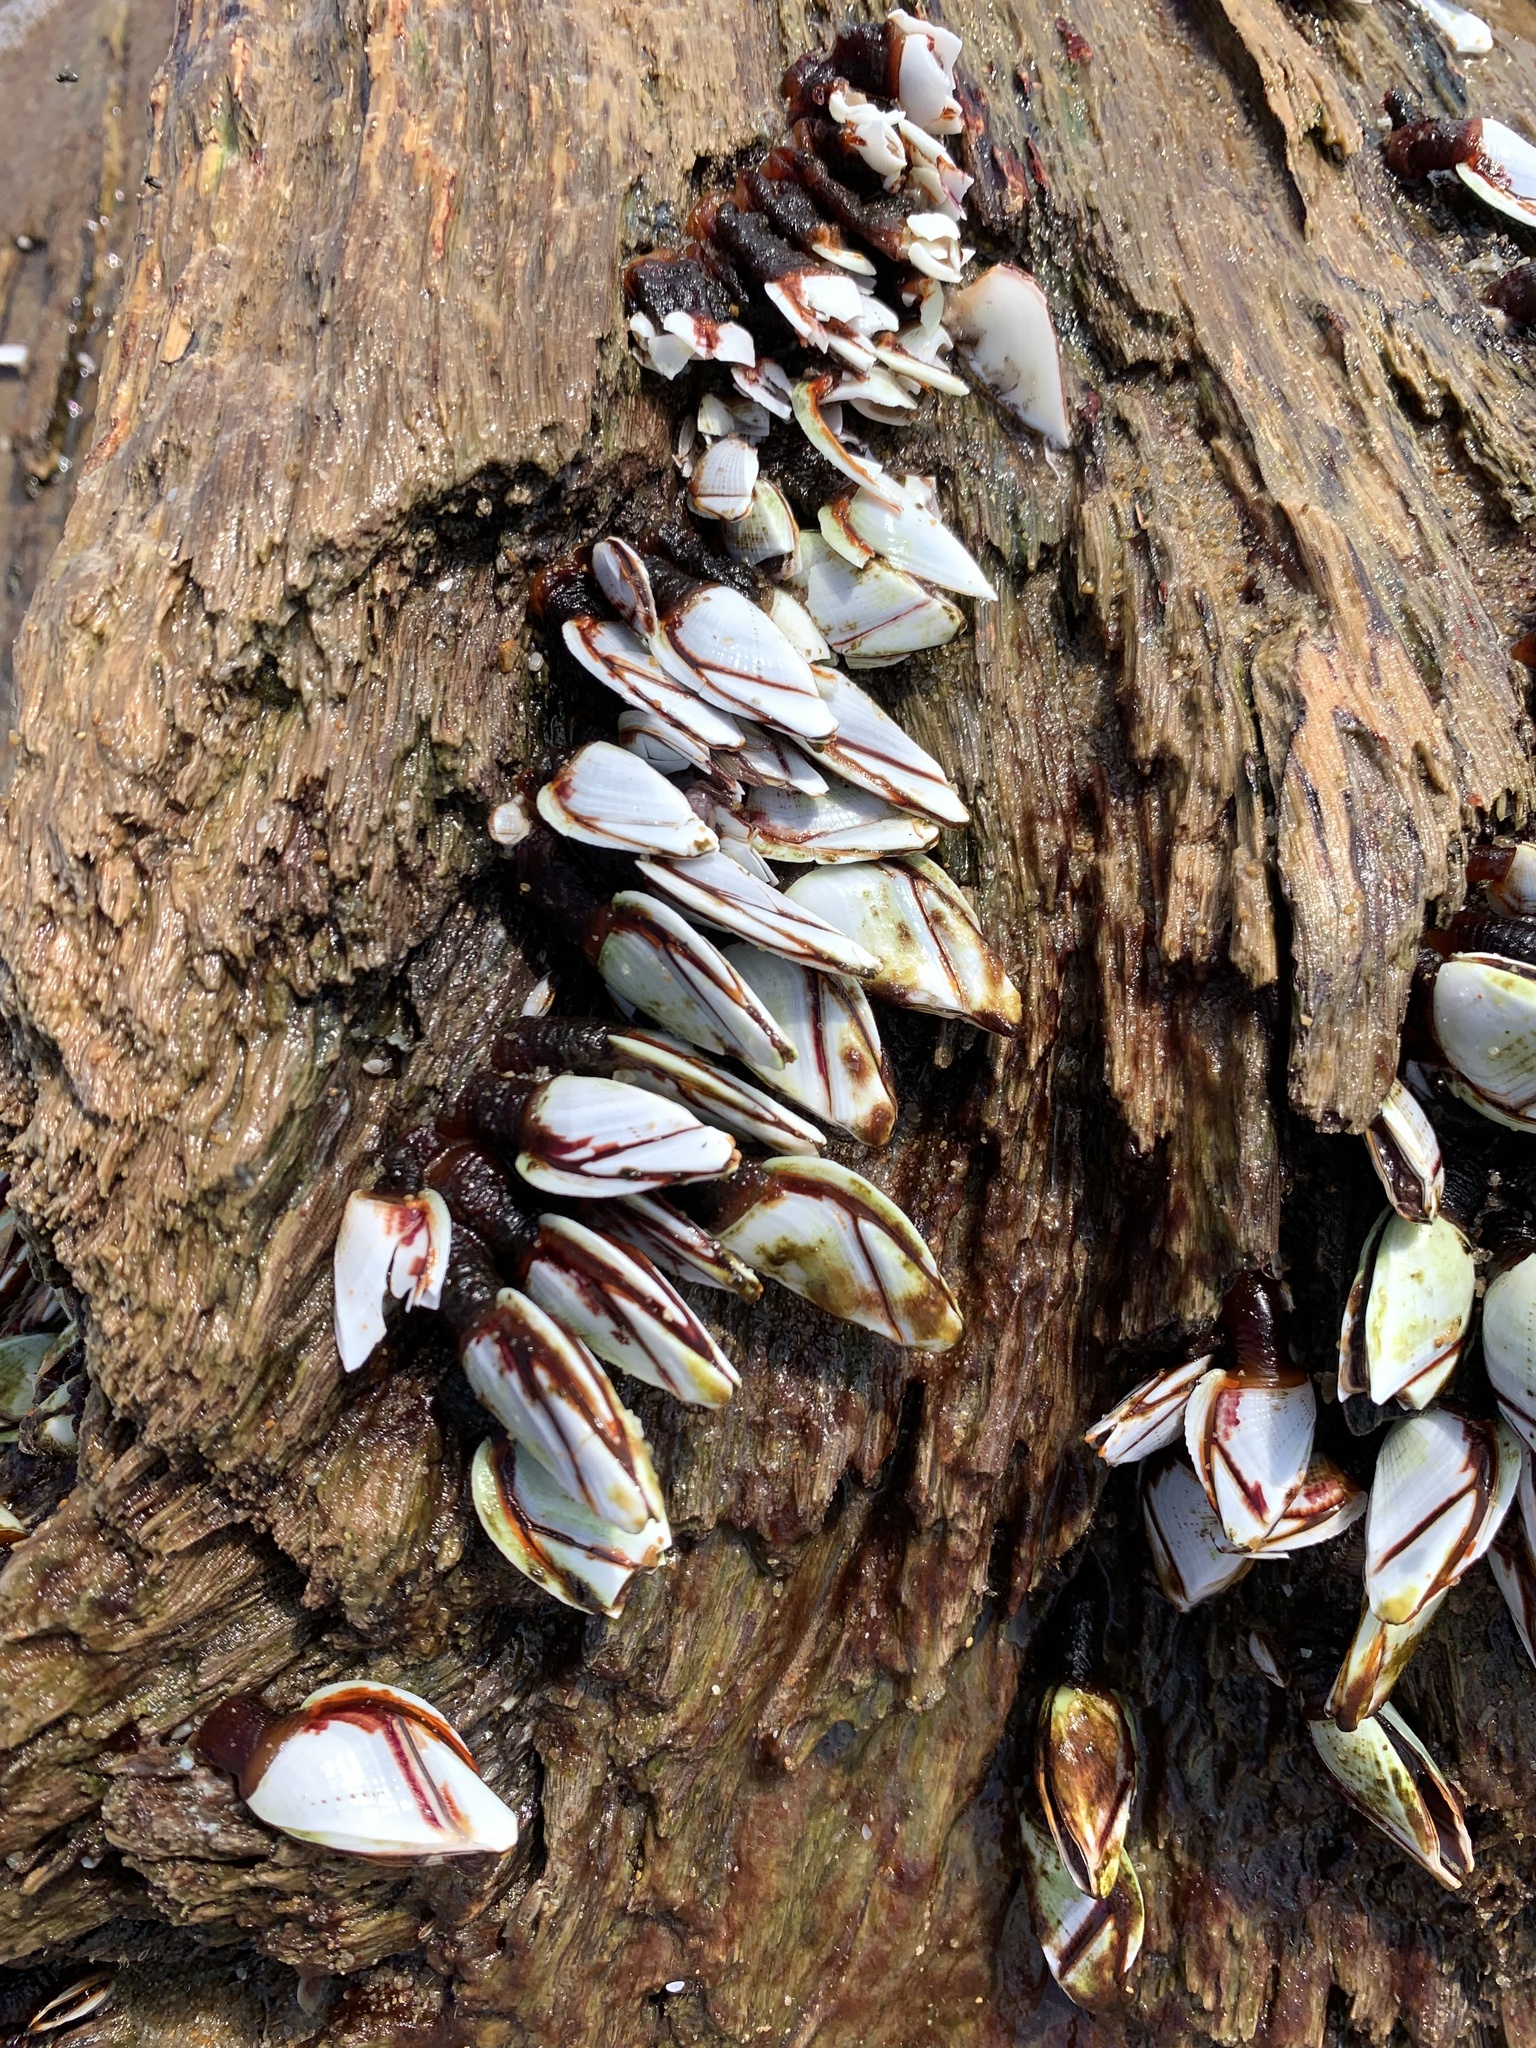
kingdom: Animalia
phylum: Arthropoda
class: Maxillopoda
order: Pedunculata
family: Lepadidae
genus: Lepas
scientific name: Lepas indica
